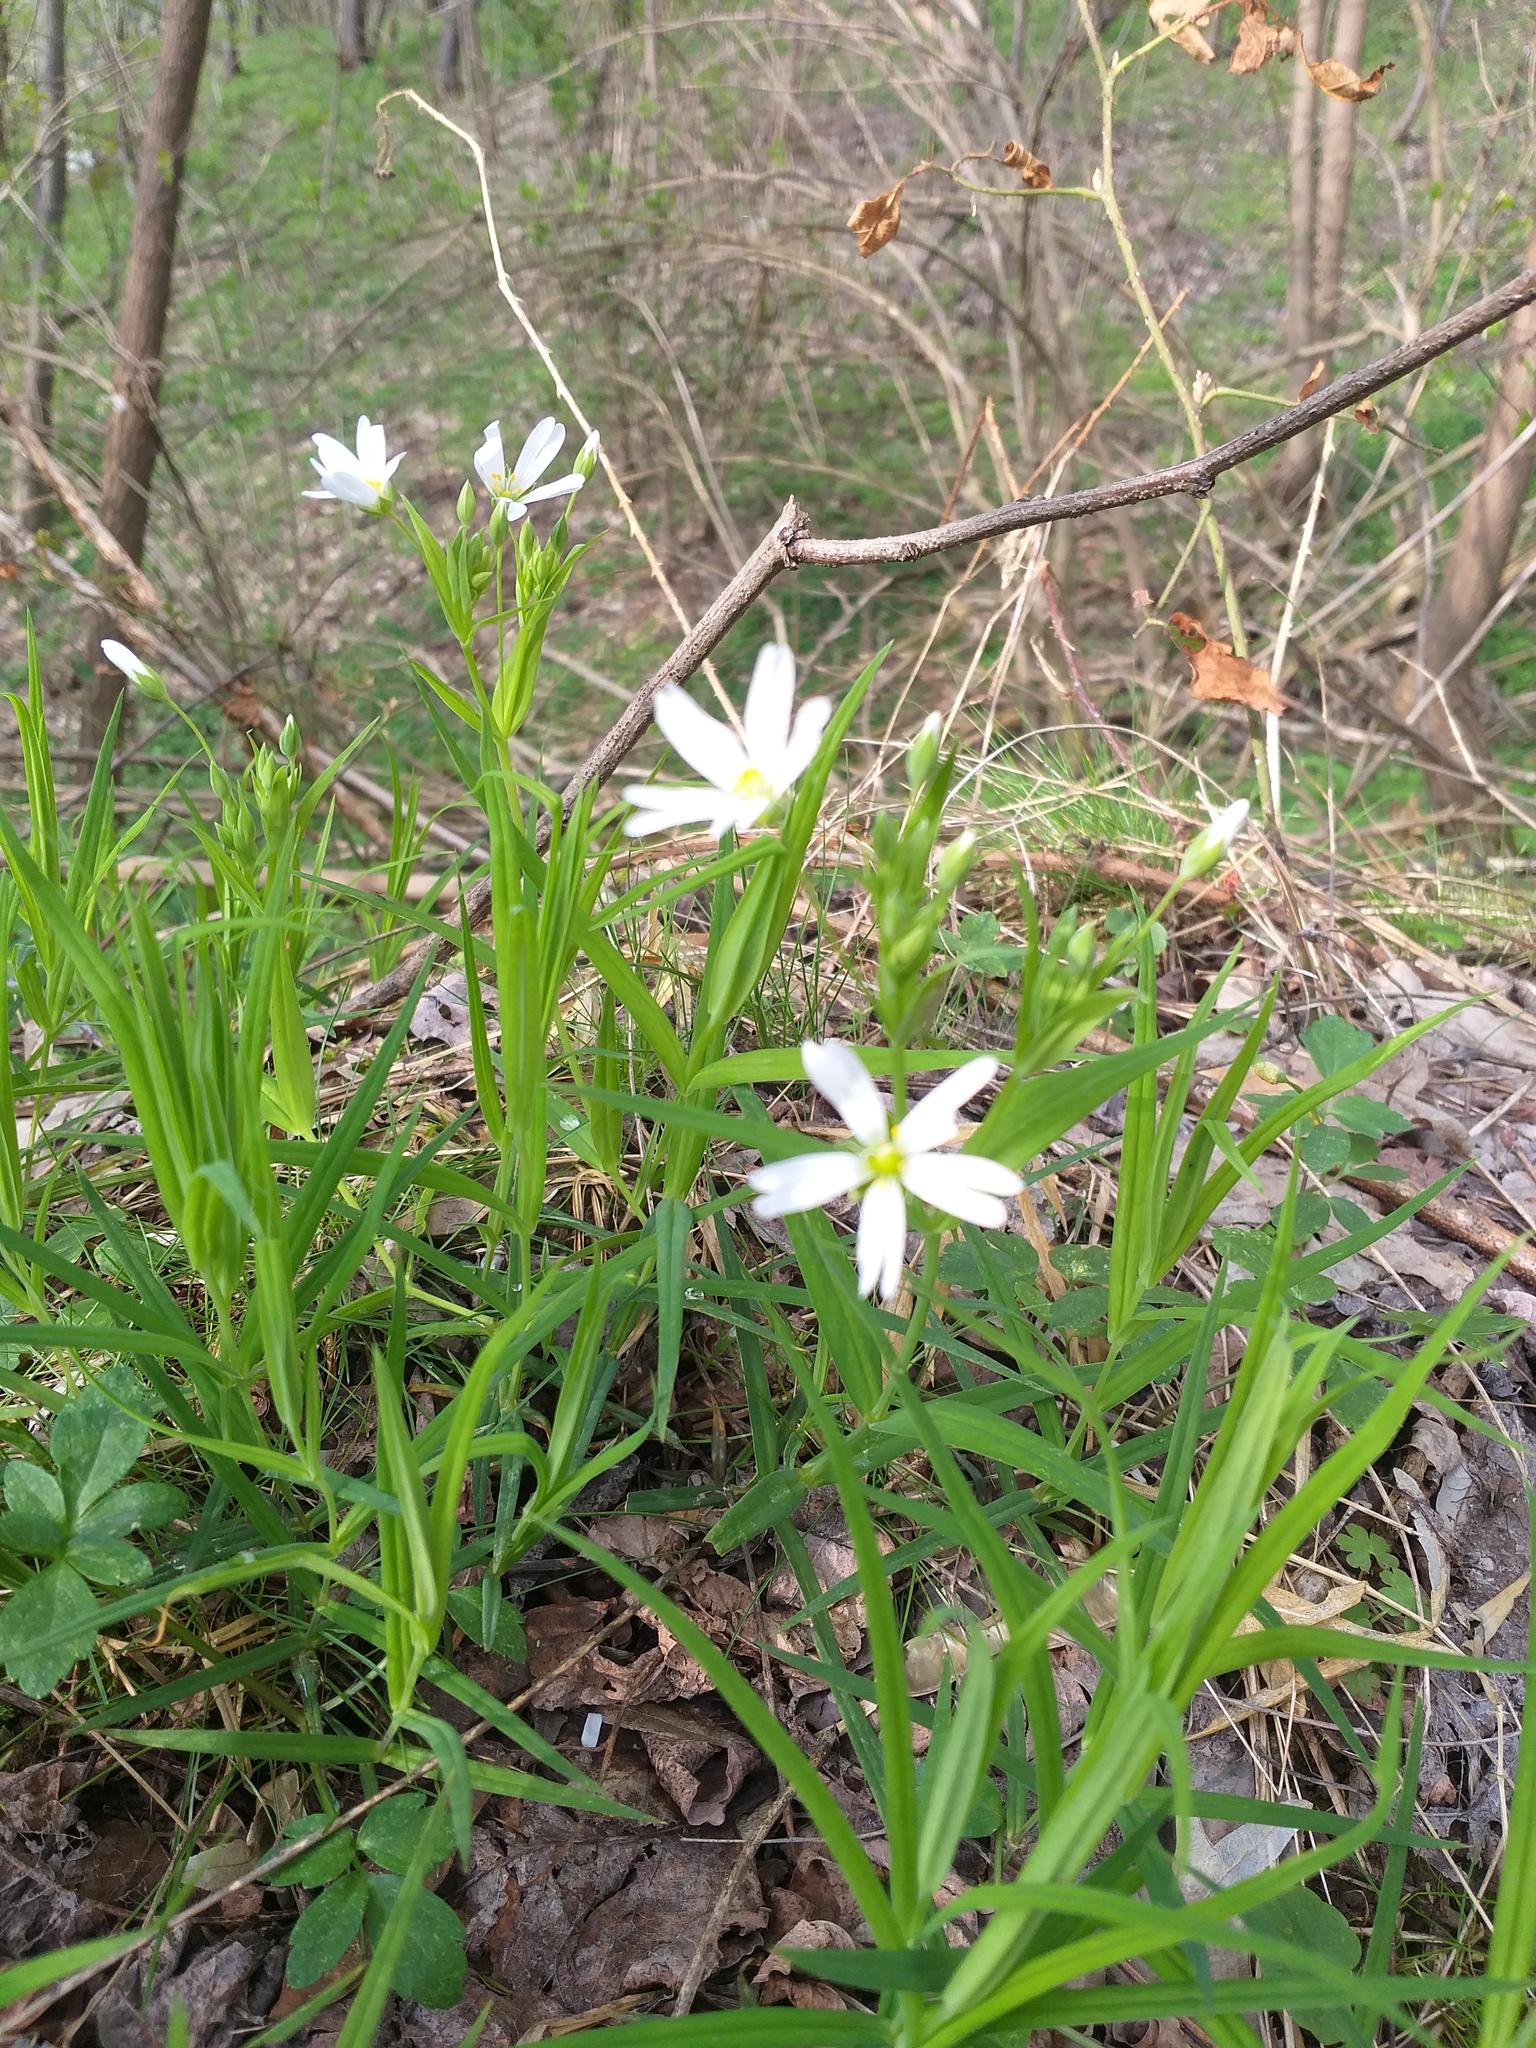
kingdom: Plantae
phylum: Tracheophyta
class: Magnoliopsida
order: Caryophyllales
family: Caryophyllaceae
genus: Rabelera
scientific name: Rabelera holostea
